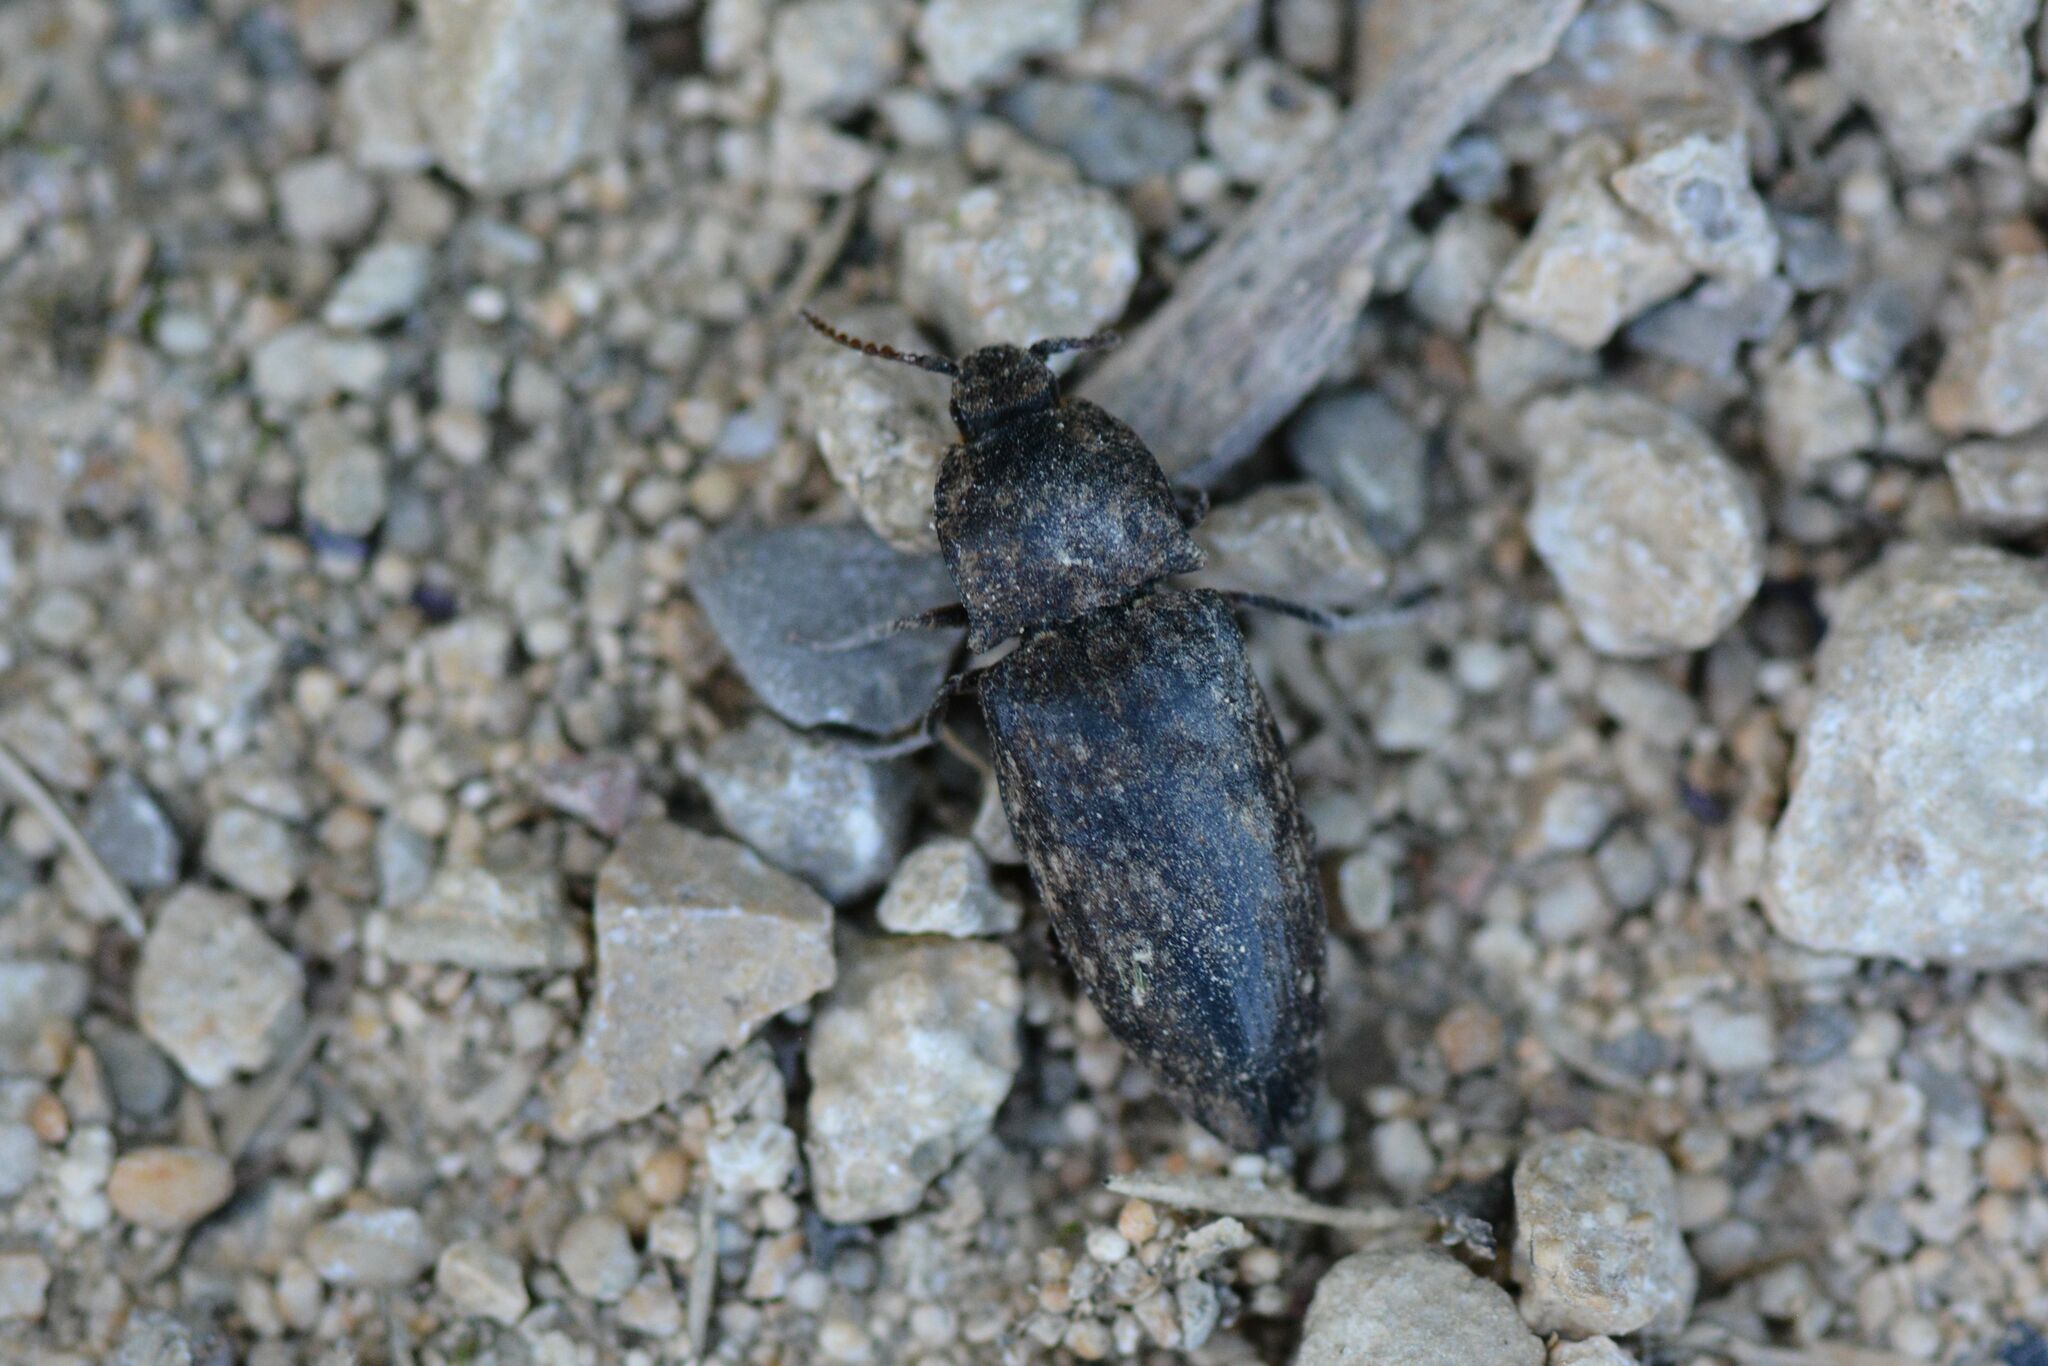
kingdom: Animalia
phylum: Arthropoda
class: Insecta
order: Coleoptera
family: Elateridae
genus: Agrypnus
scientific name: Agrypnus murinus
